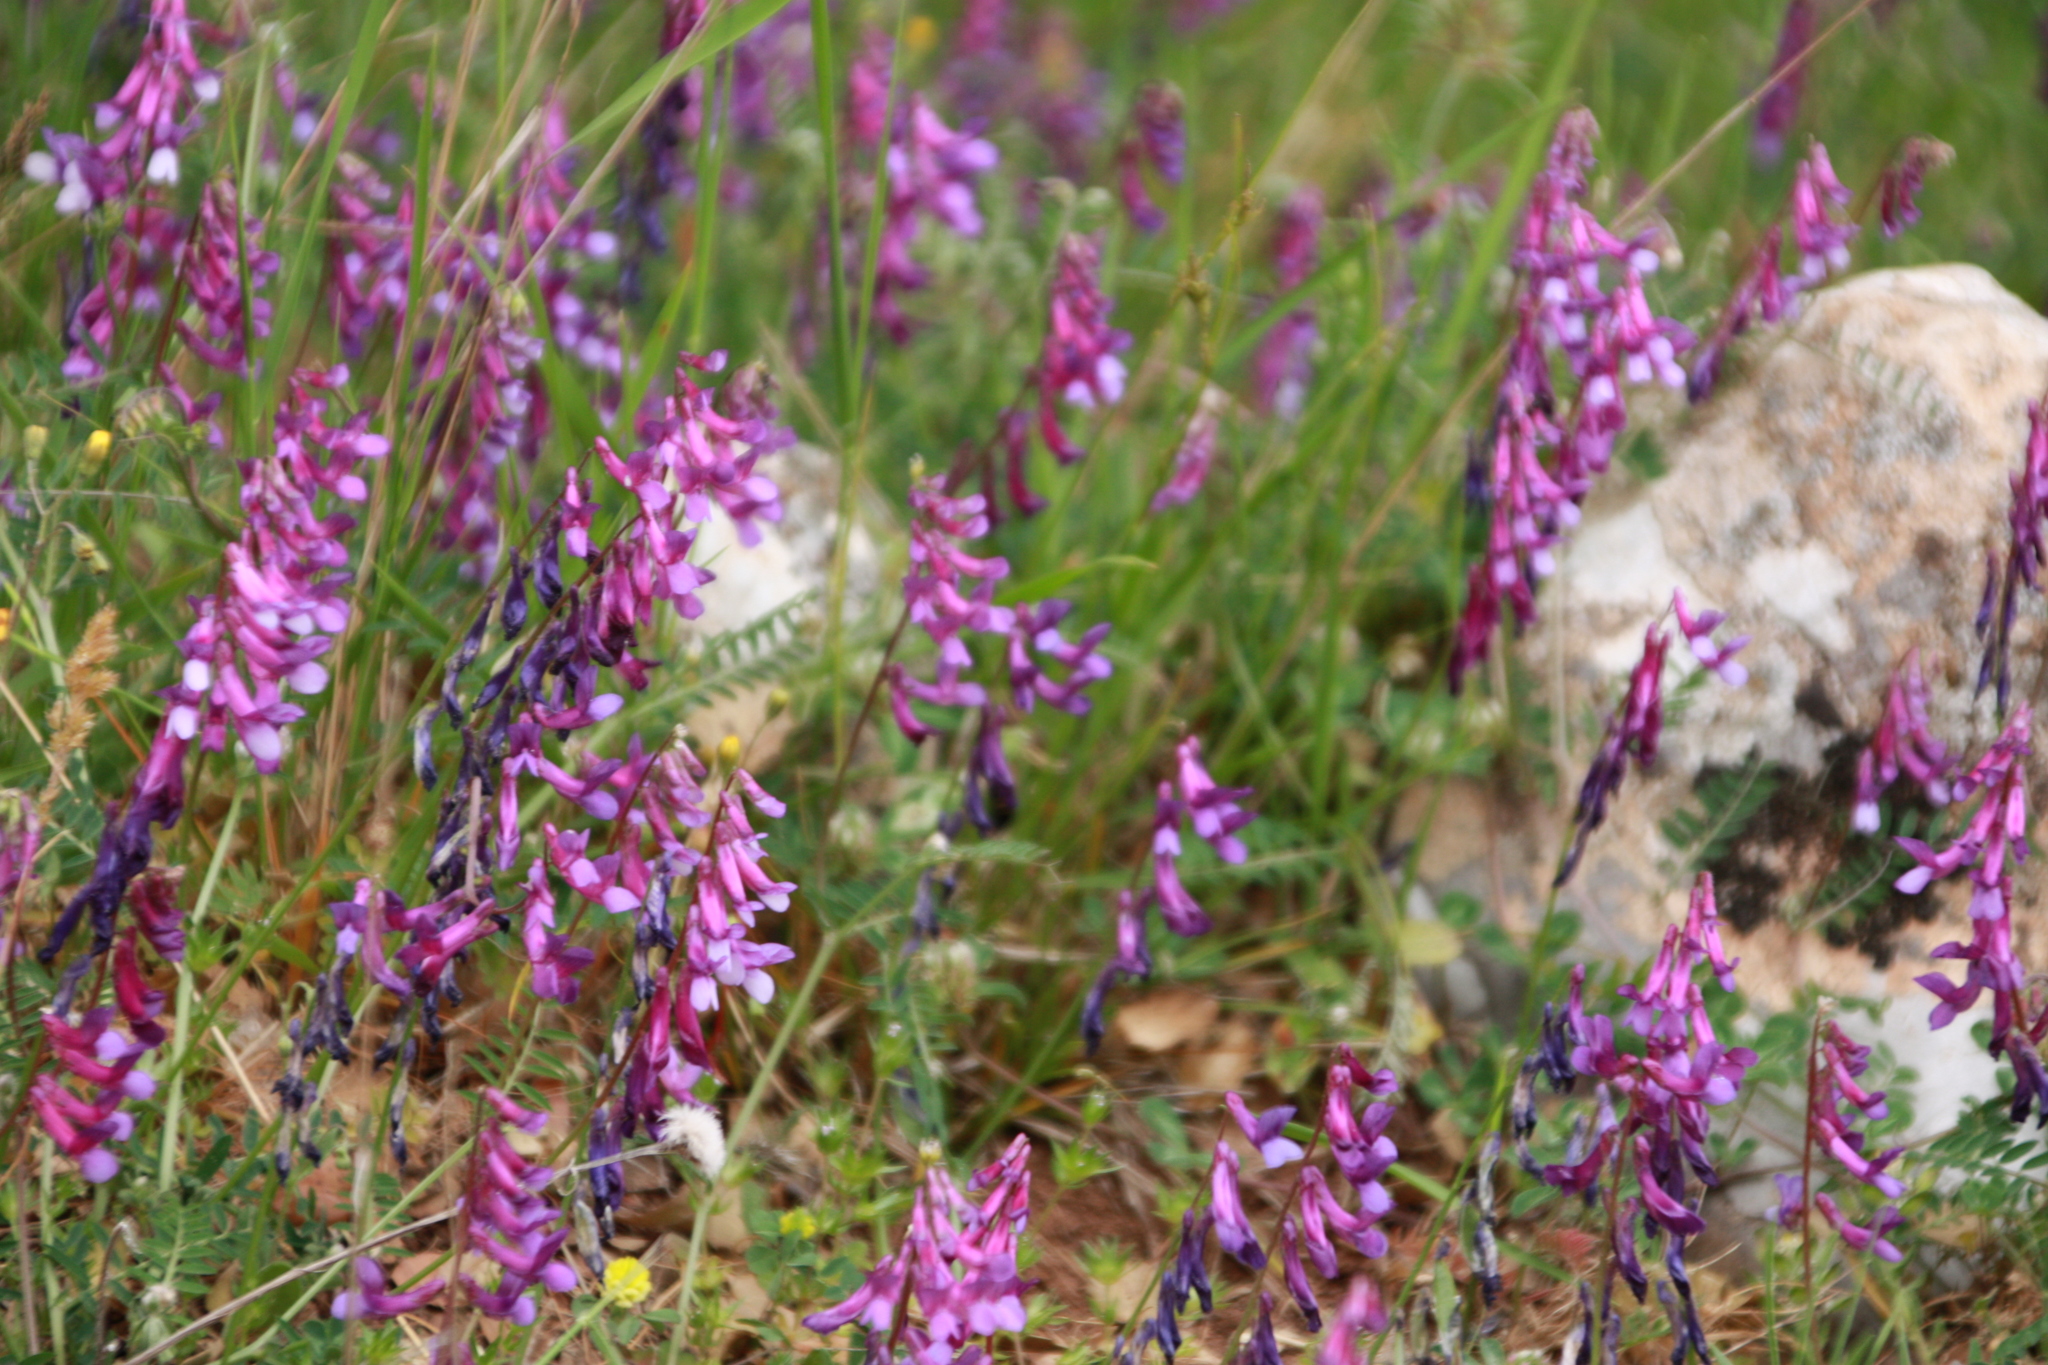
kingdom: Plantae
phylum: Tracheophyta
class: Magnoliopsida
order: Fabales
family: Fabaceae
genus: Vicia
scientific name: Vicia villosa
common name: Fodder vetch
